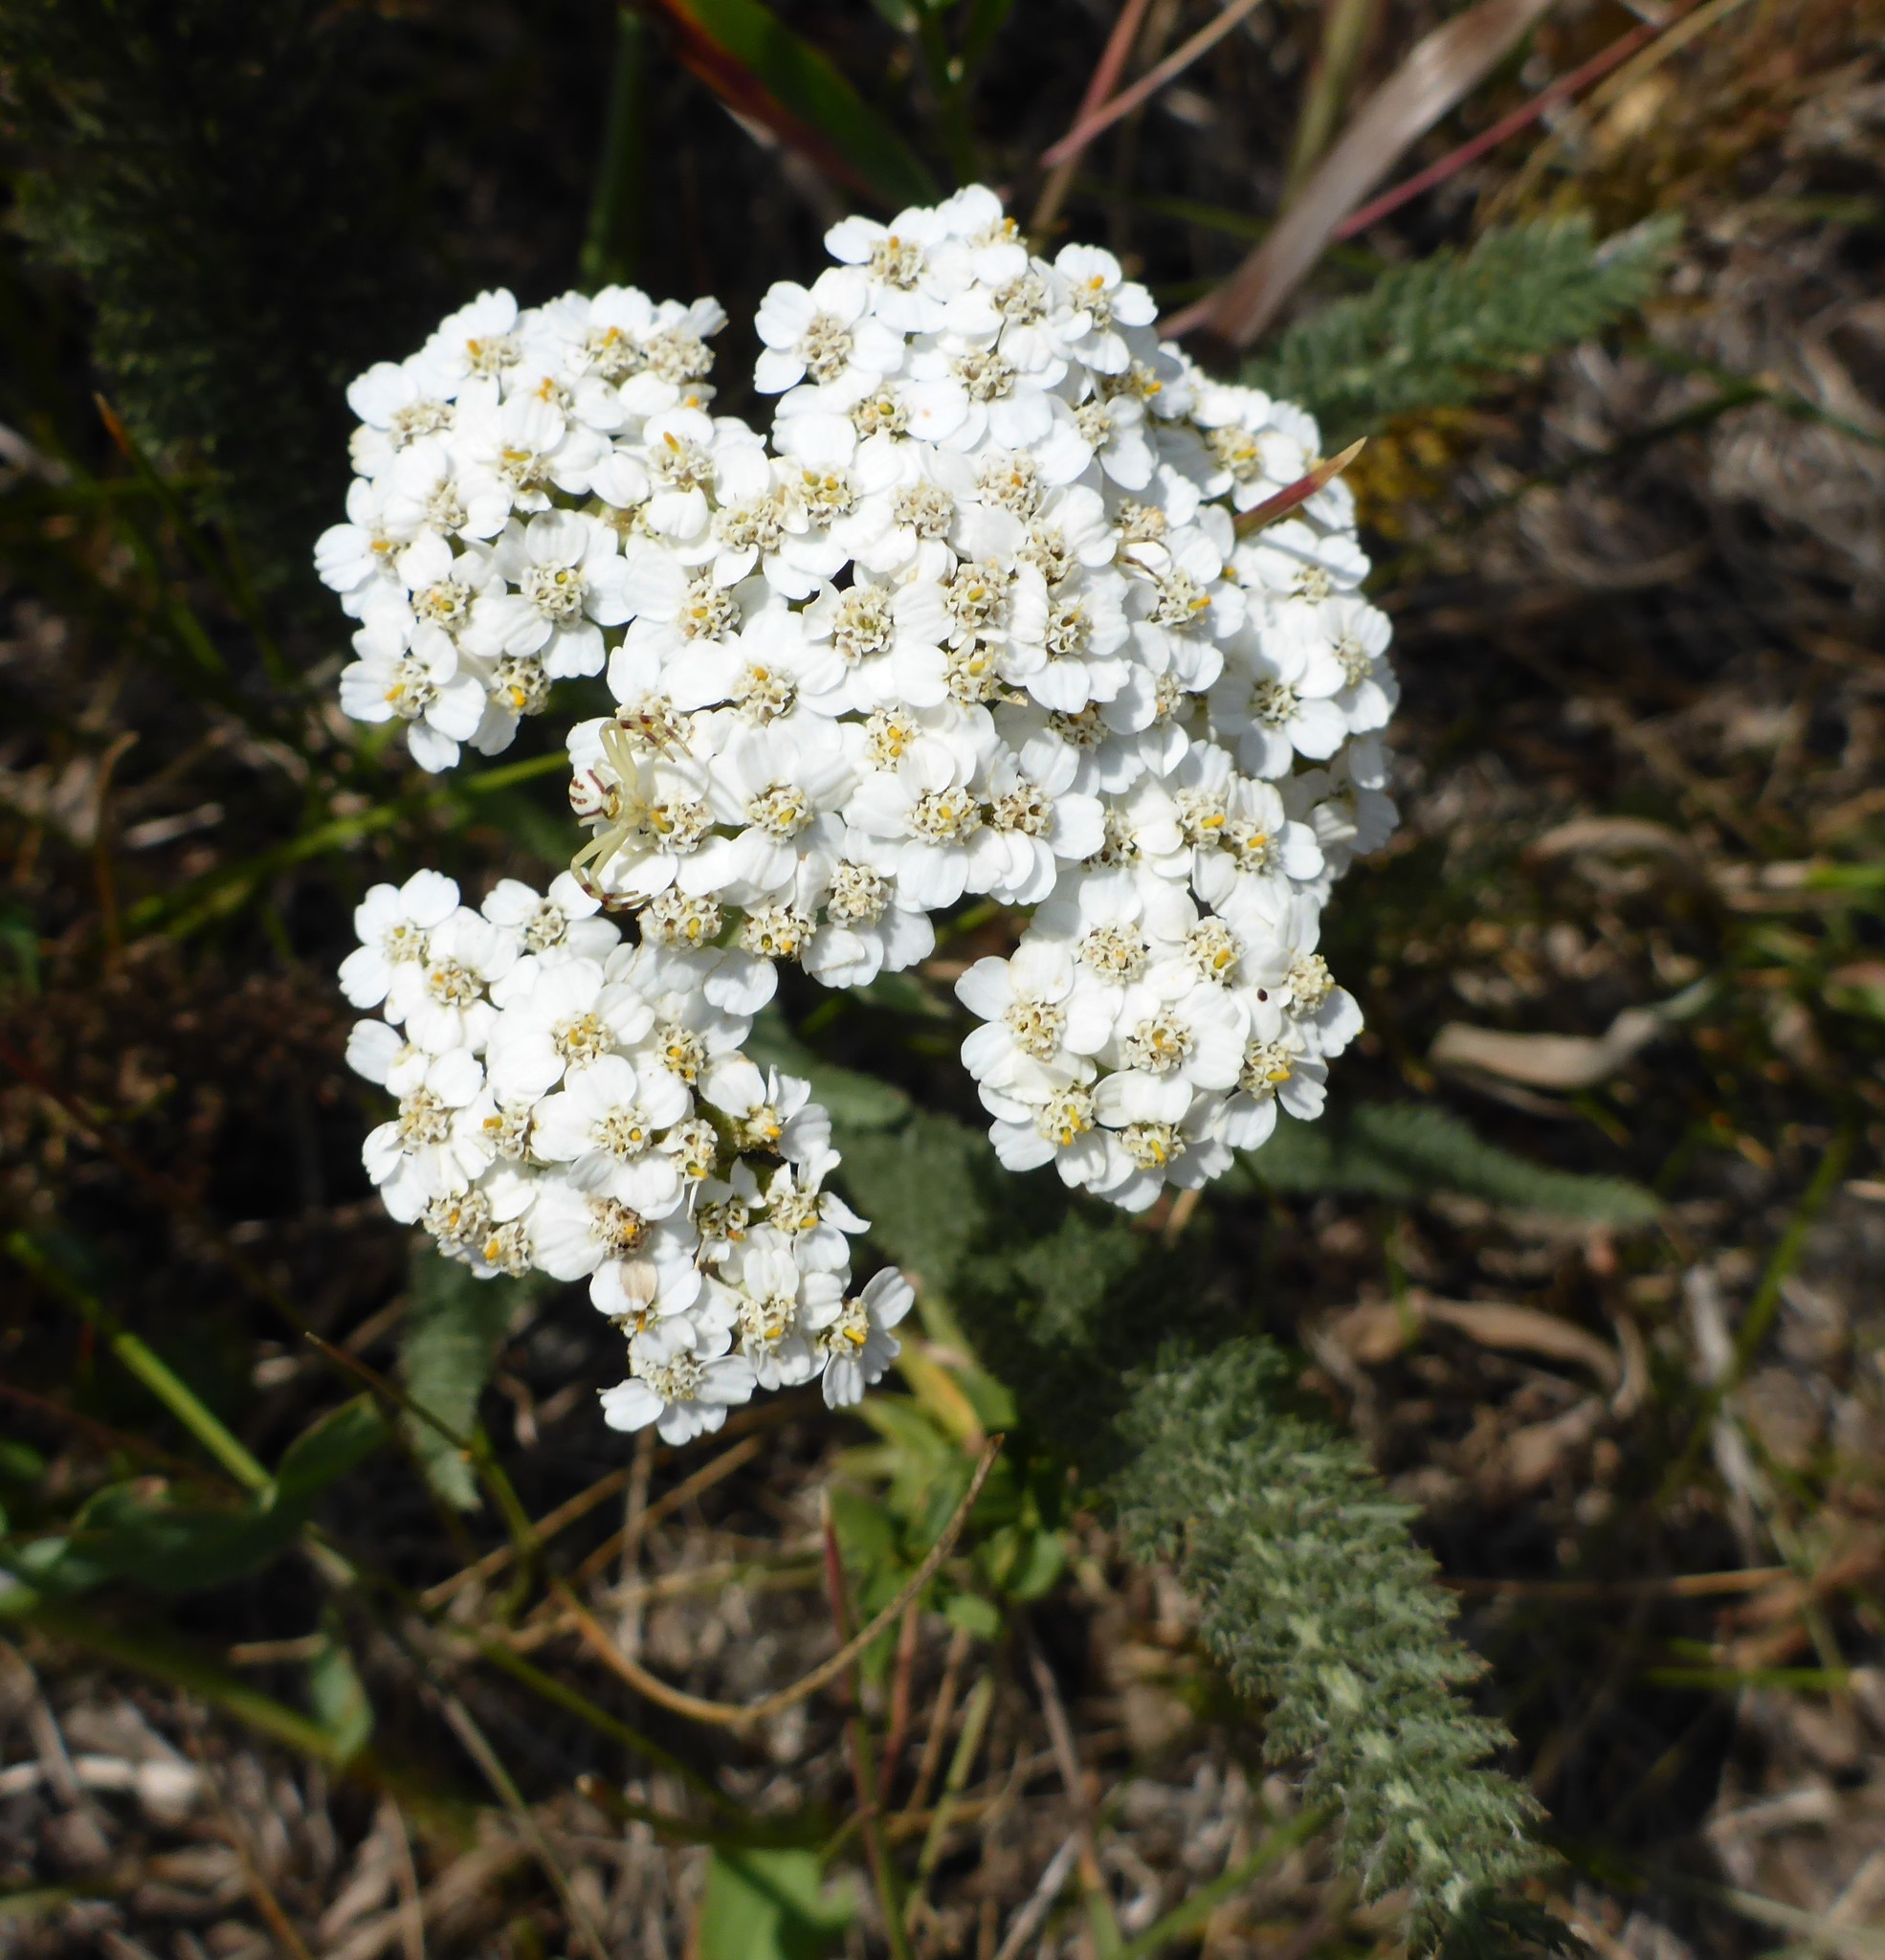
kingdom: Plantae
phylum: Tracheophyta
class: Magnoliopsida
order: Asterales
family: Asteraceae
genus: Achillea
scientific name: Achillea millefolium
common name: Yarrow
